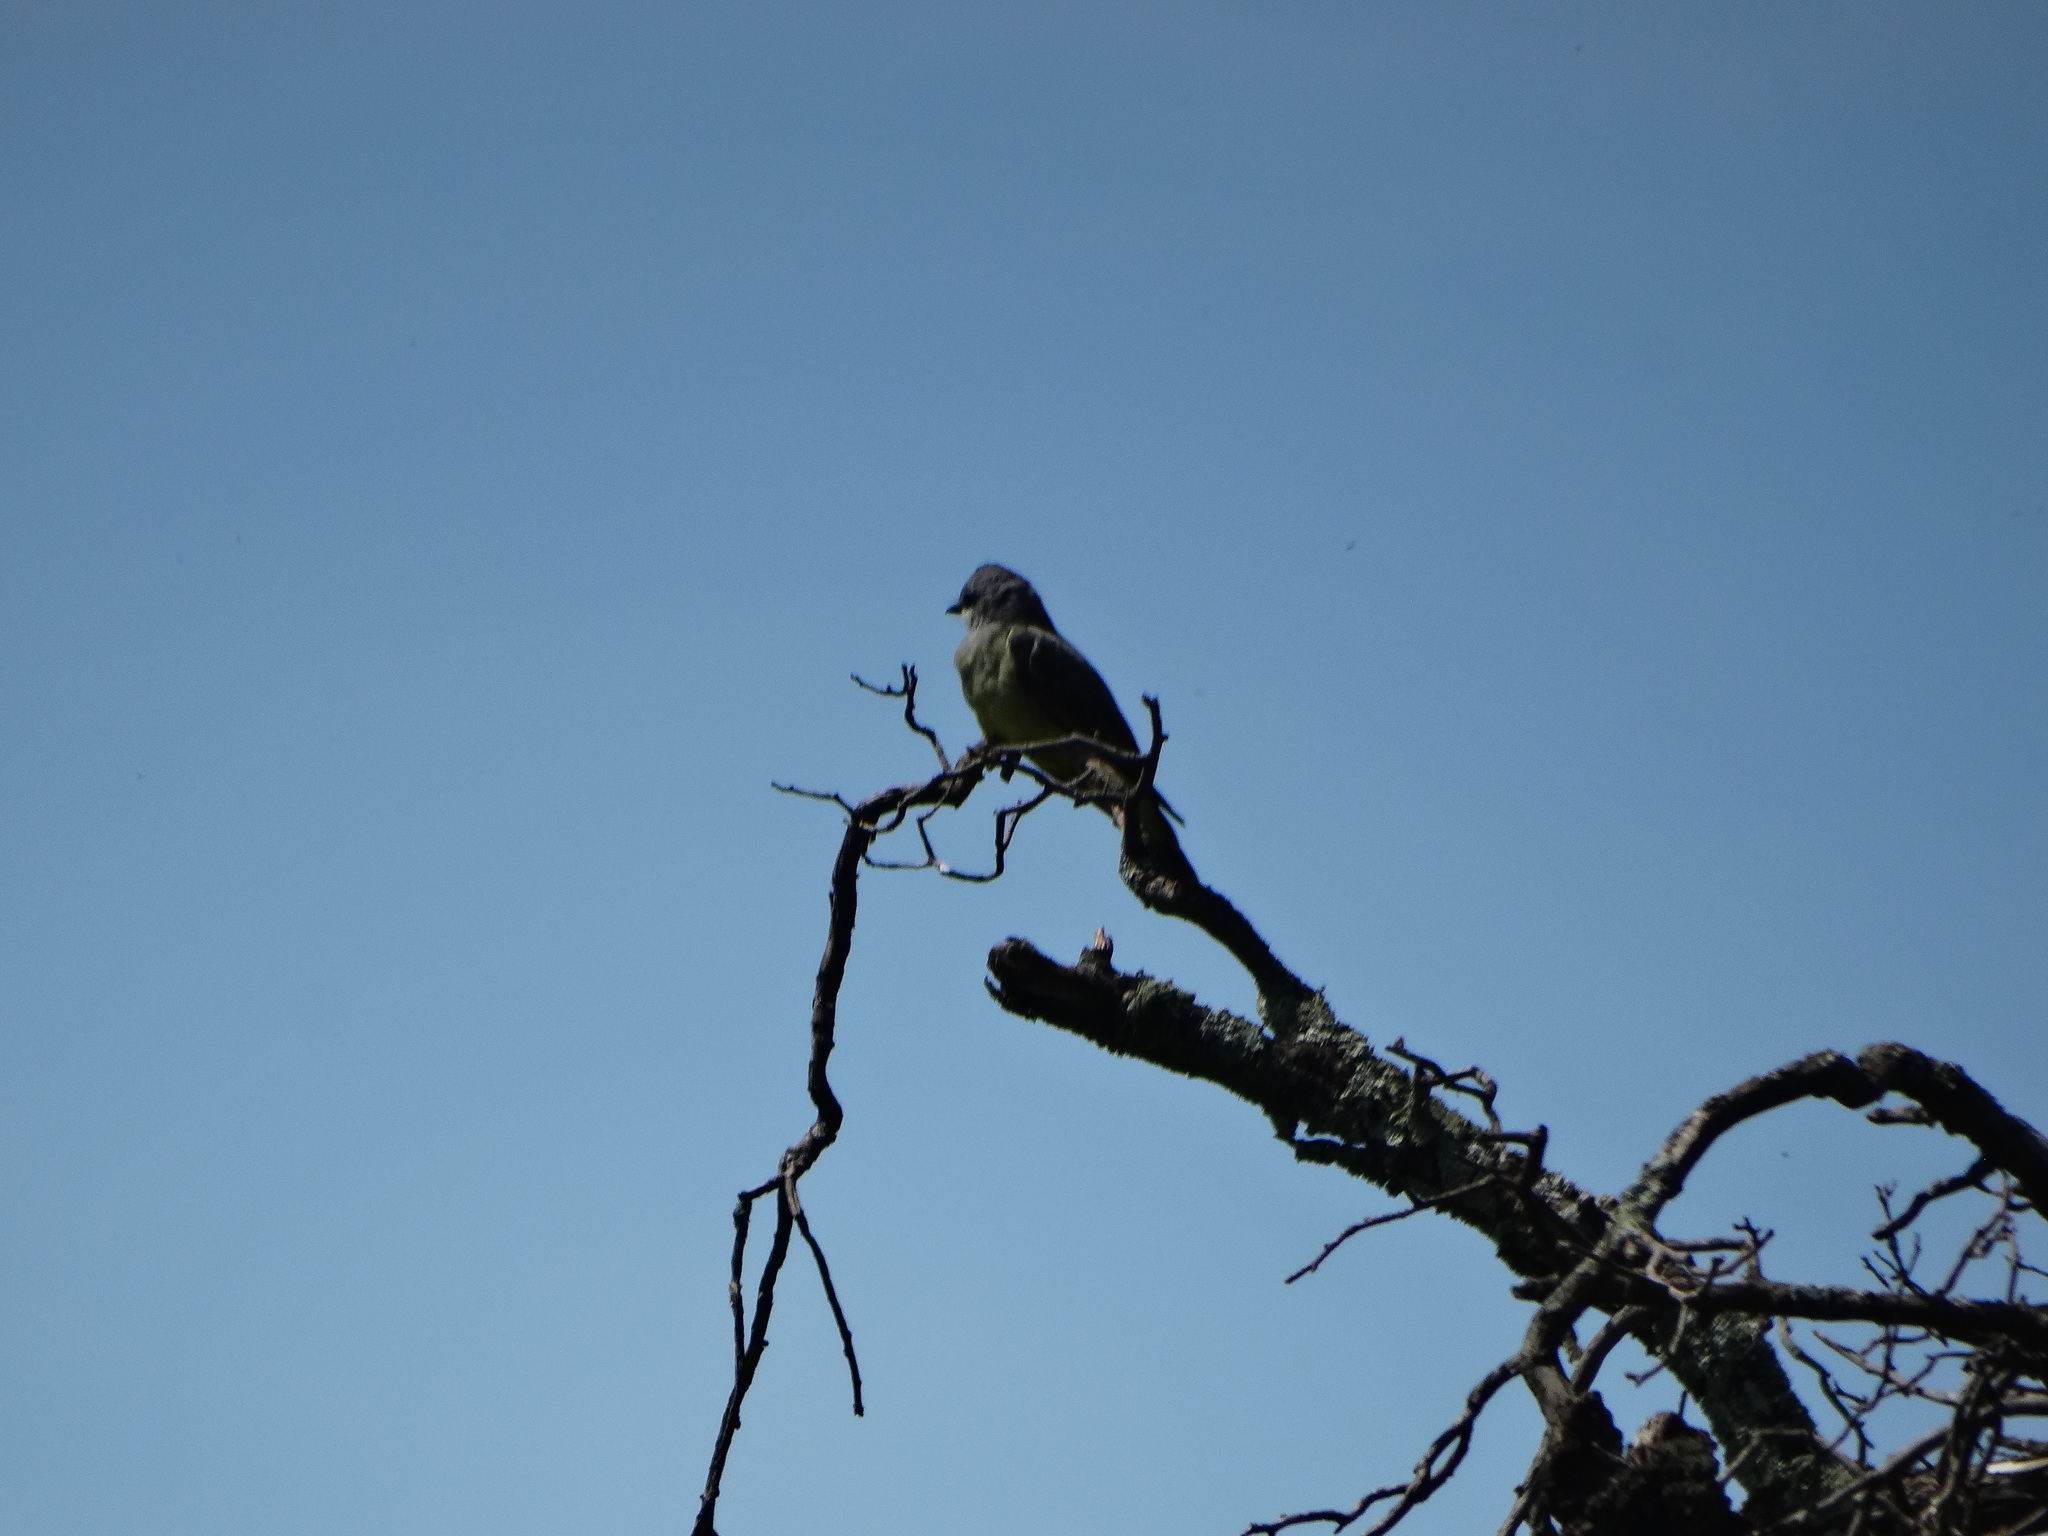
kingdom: Animalia
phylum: Chordata
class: Aves
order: Passeriformes
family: Tyrannidae
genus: Tyrannus
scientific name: Tyrannus vociferans
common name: Cassin's kingbird
